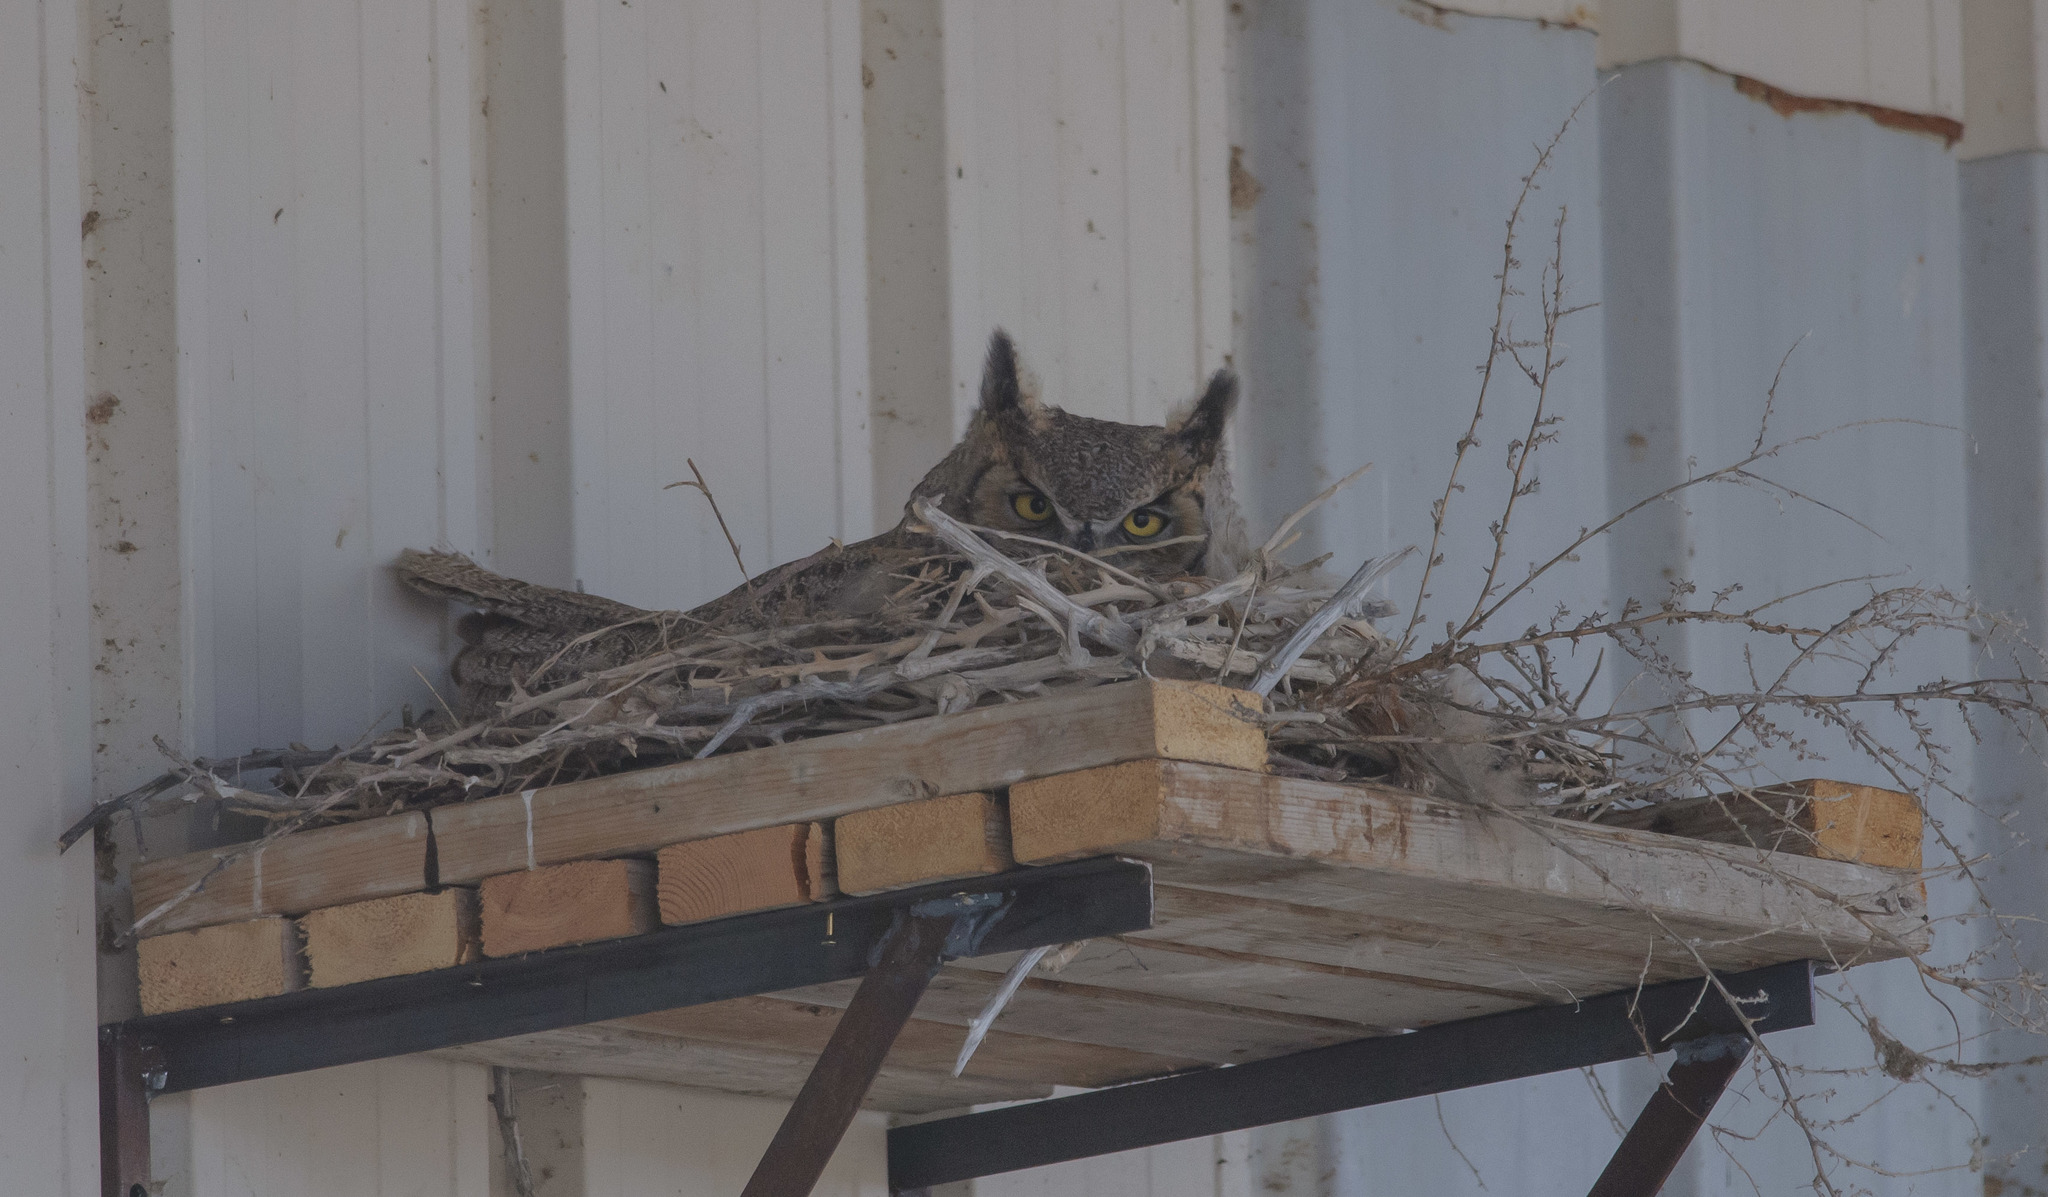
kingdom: Animalia
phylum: Chordata
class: Aves
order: Strigiformes
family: Strigidae
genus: Bubo
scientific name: Bubo virginianus
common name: Great horned owl
